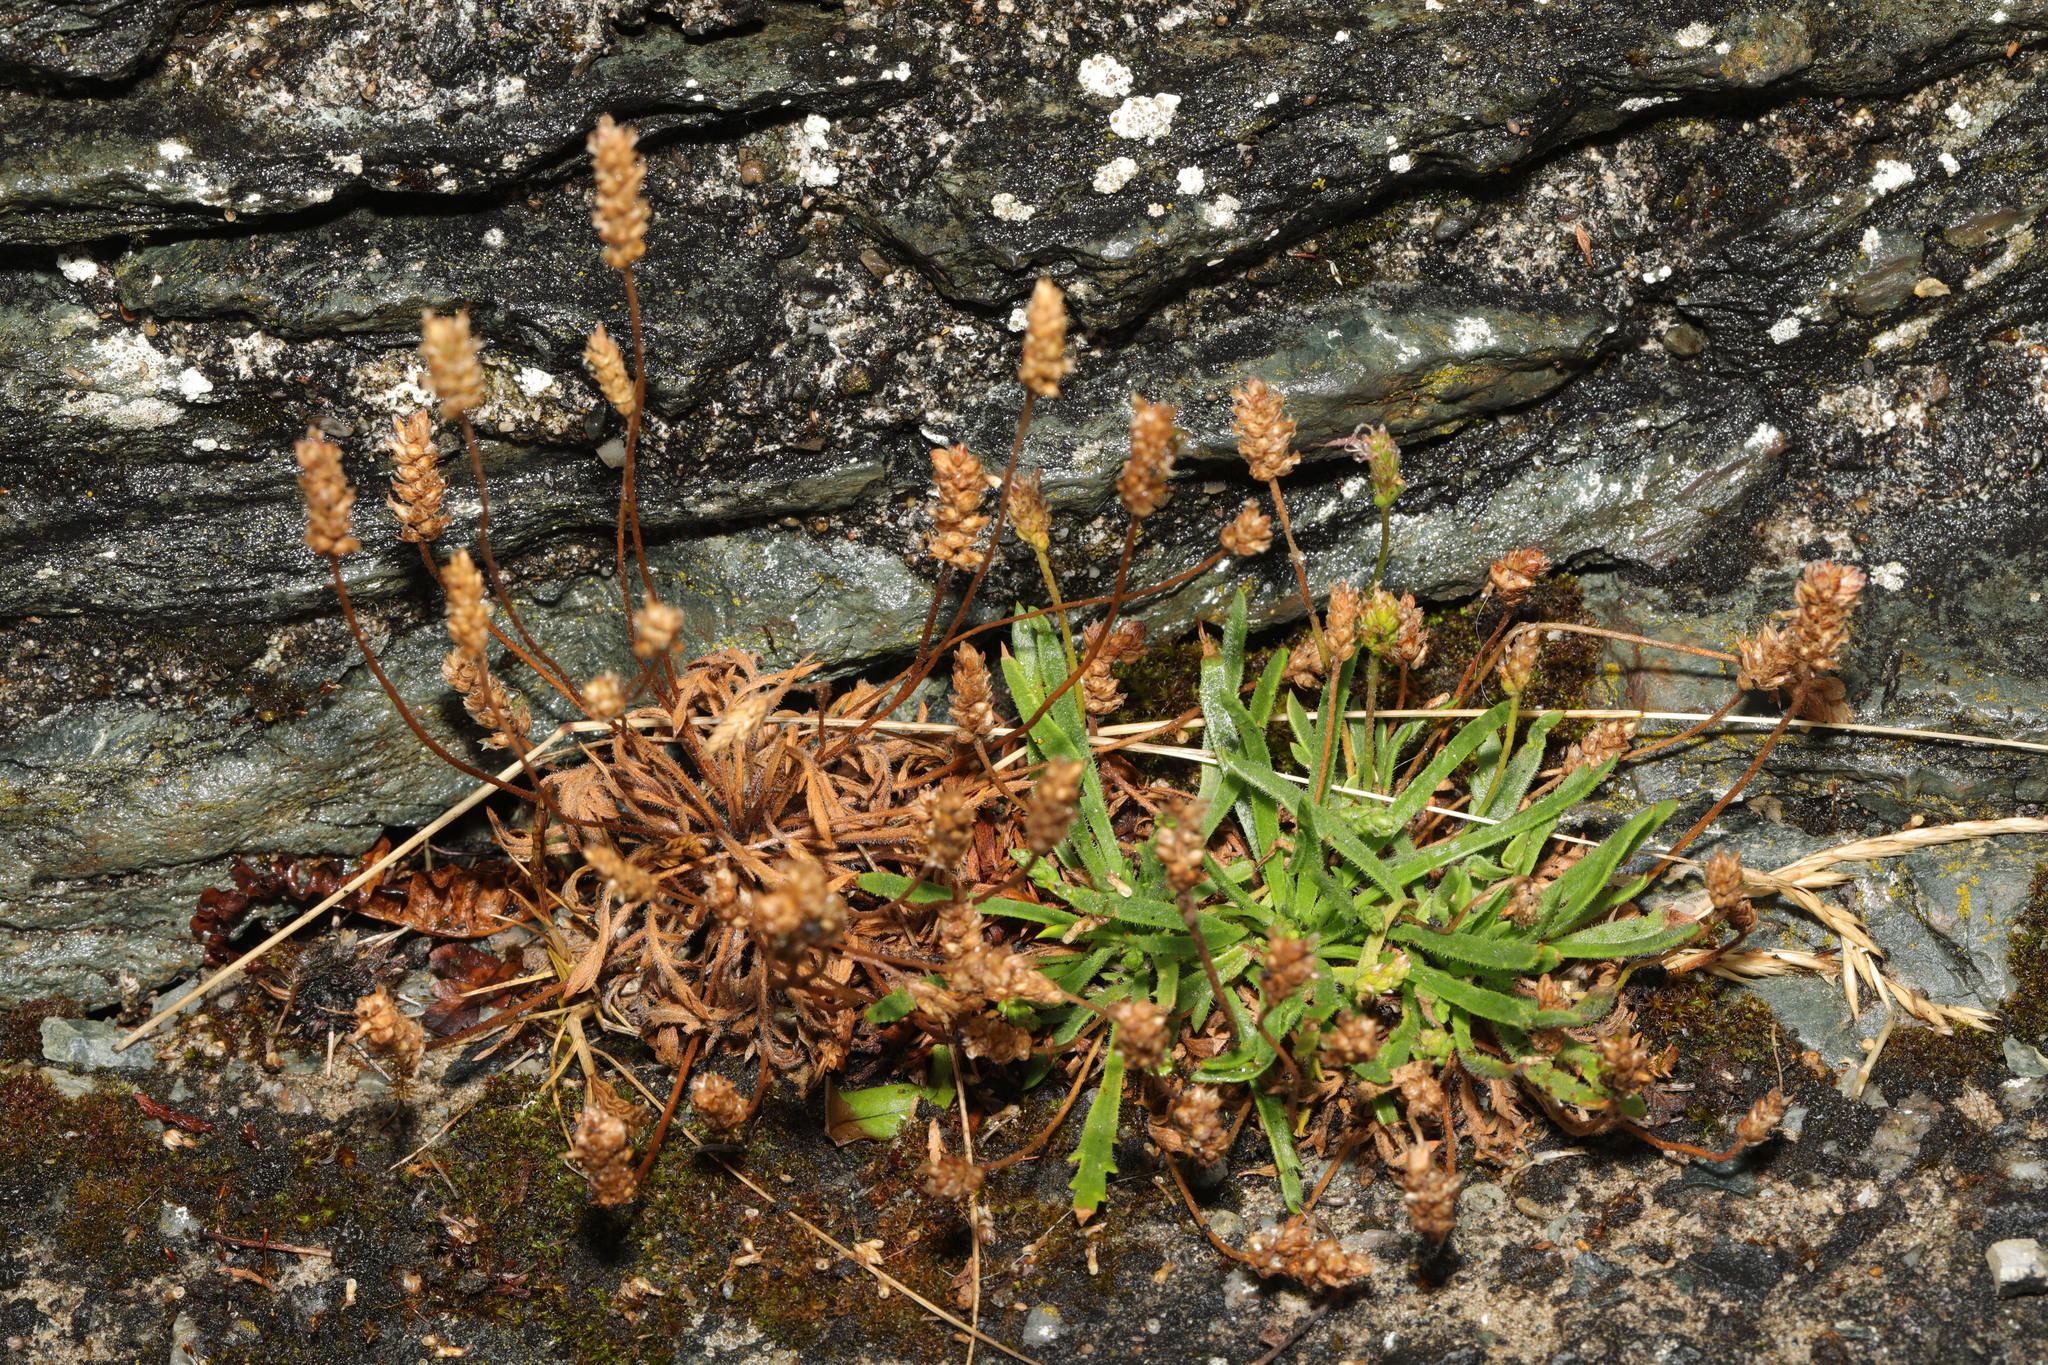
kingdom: Plantae
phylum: Tracheophyta
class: Magnoliopsida
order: Lamiales
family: Plantaginaceae
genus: Plantago
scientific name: Plantago coronopus
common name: Buck's-horn plantain
